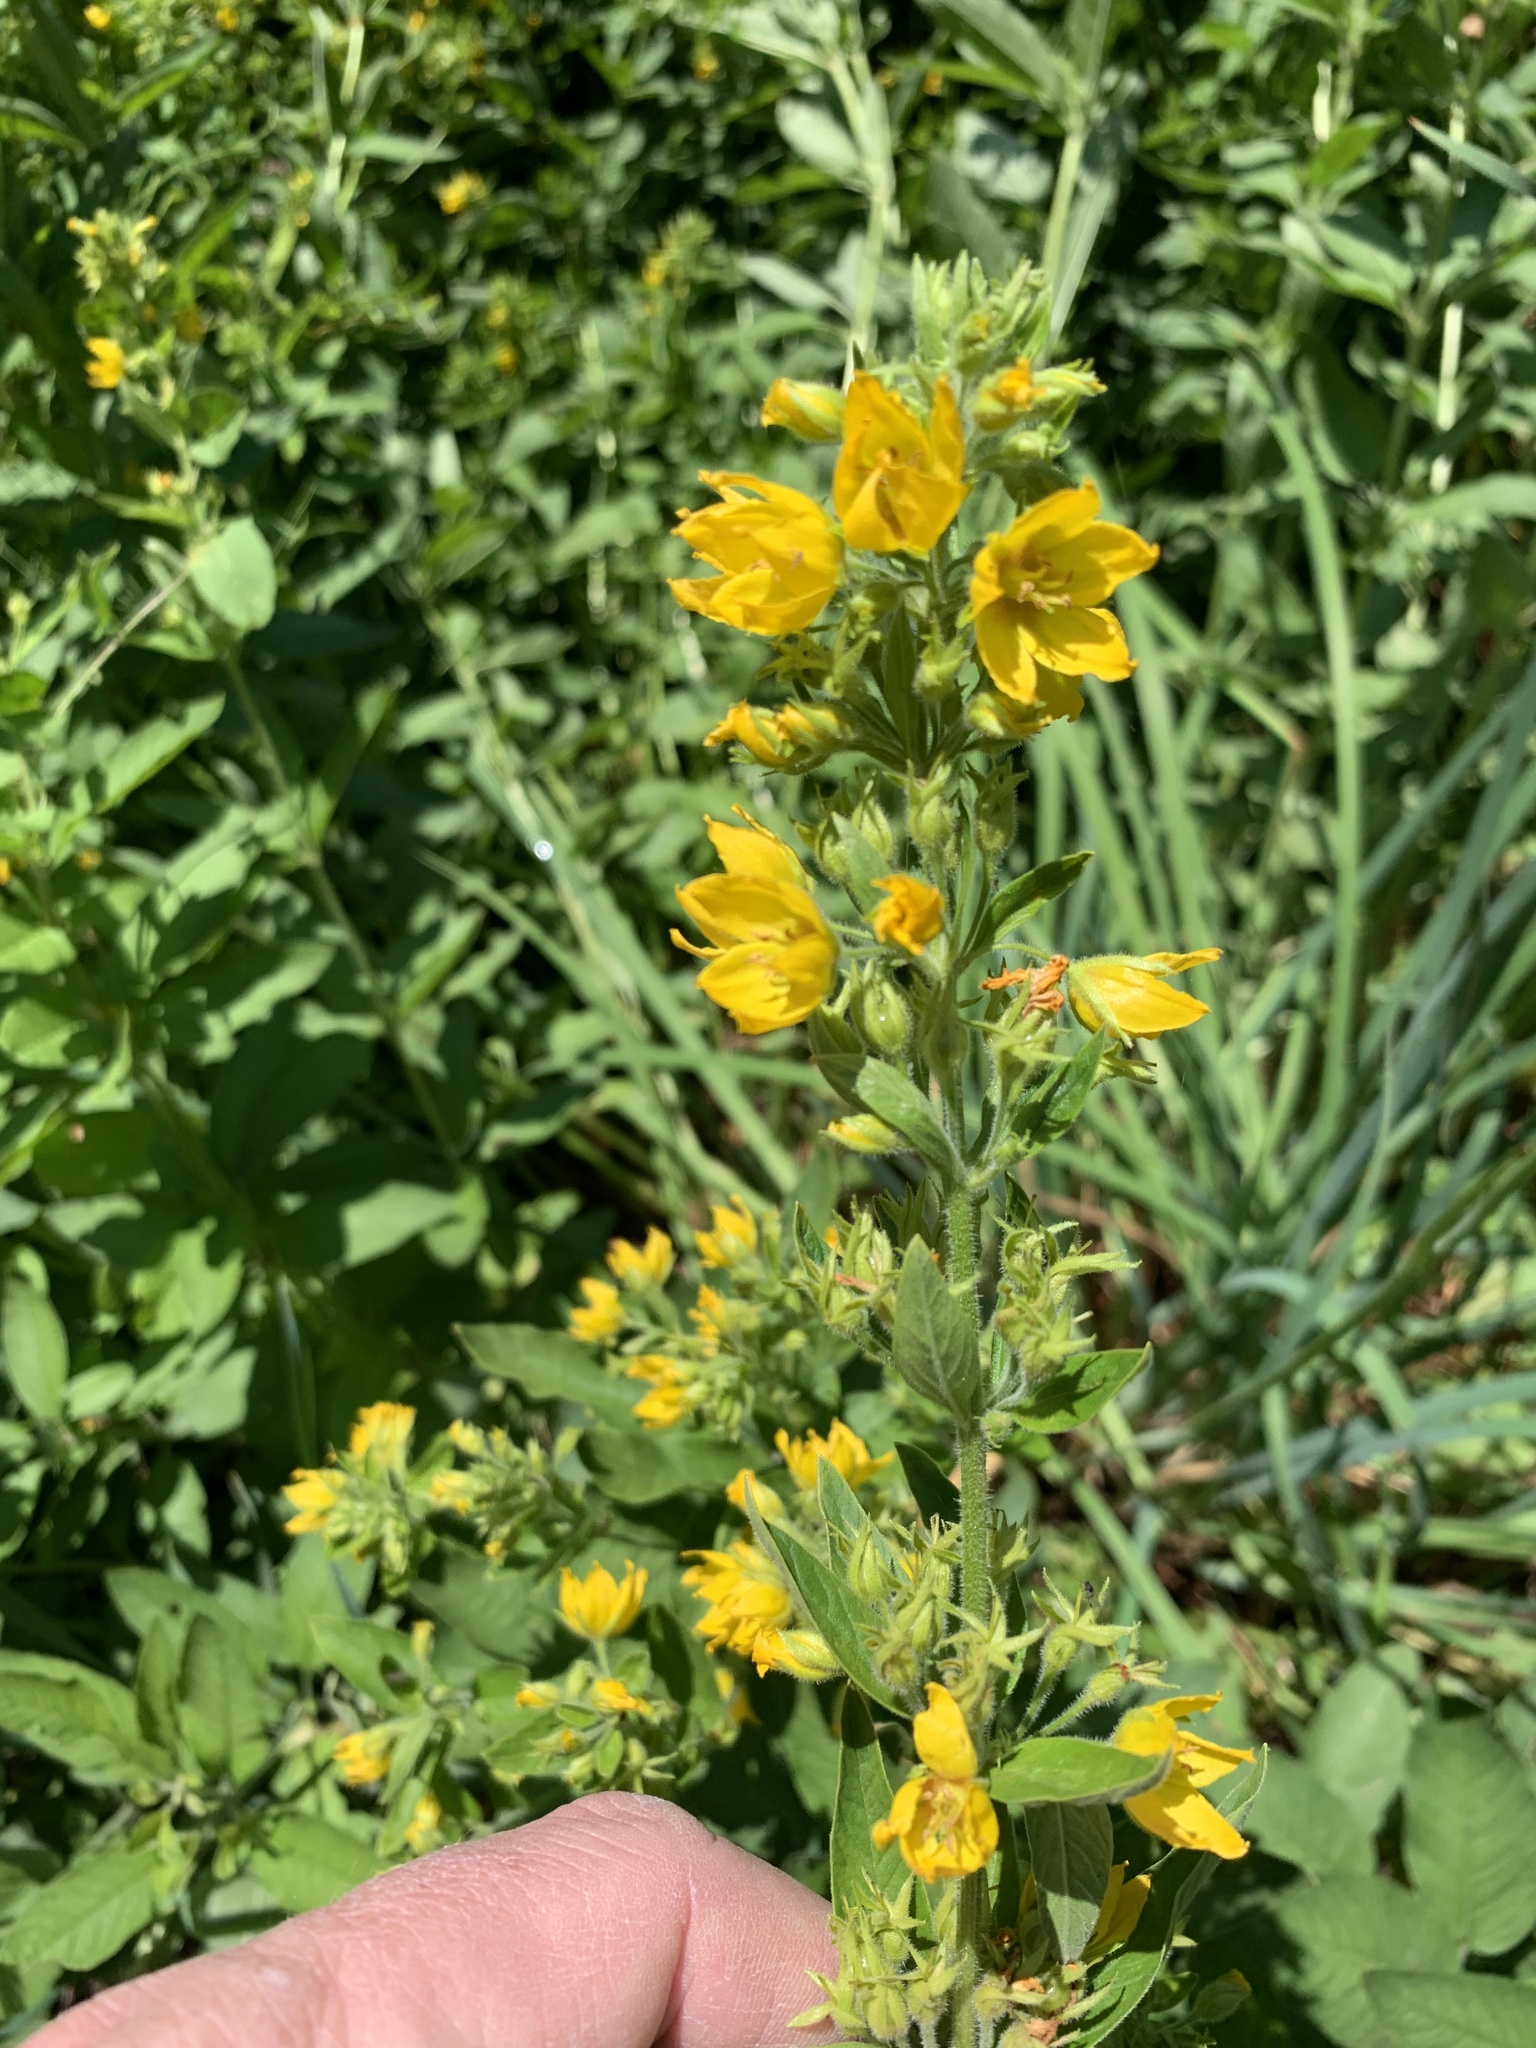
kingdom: Plantae
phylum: Tracheophyta
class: Magnoliopsida
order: Ericales
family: Primulaceae
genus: Lysimachia
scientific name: Lysimachia vulgaris
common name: Yellow loosestrife
